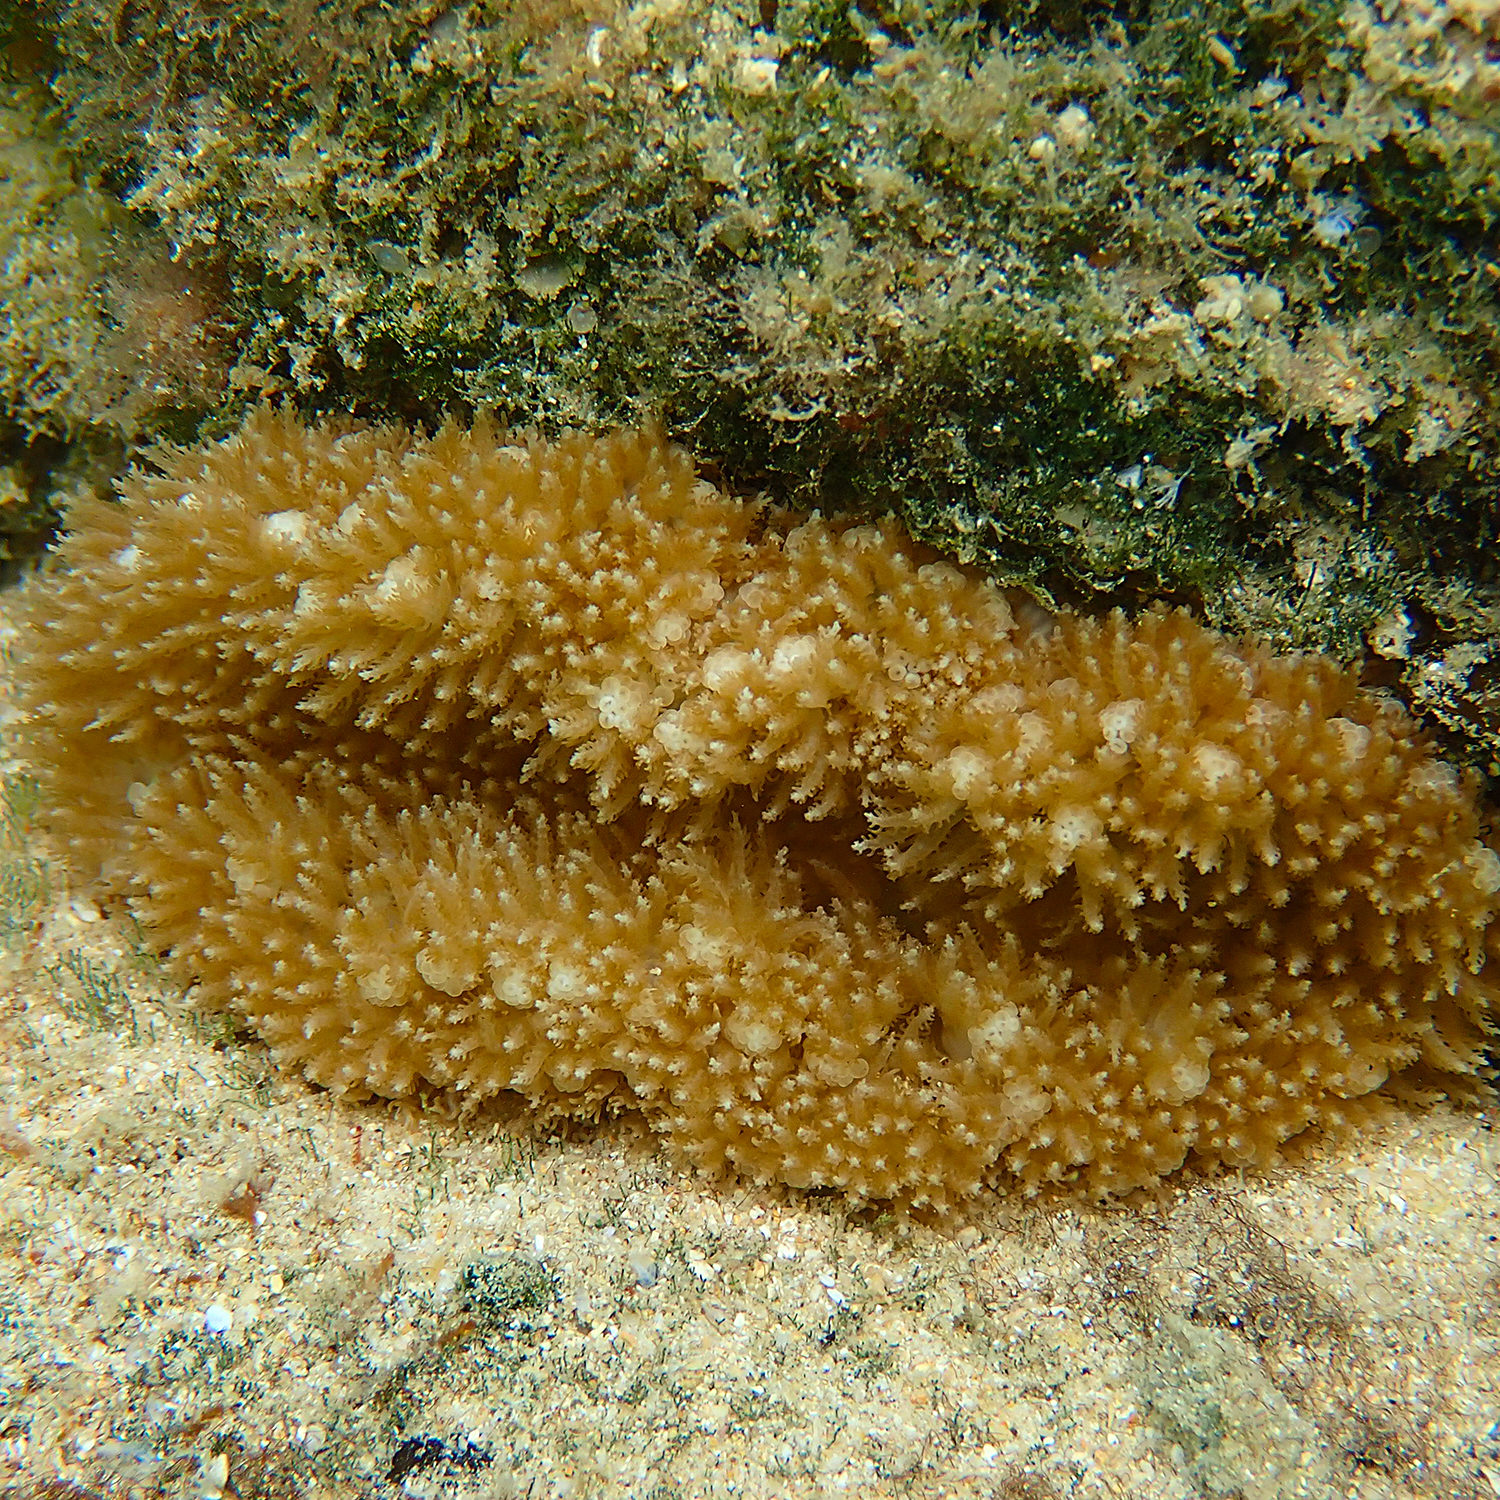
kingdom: Animalia
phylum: Cnidaria
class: Anthozoa
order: Actiniaria
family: Thalassianthidae
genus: Heterodactyla
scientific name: Heterodactyla hemprichii
